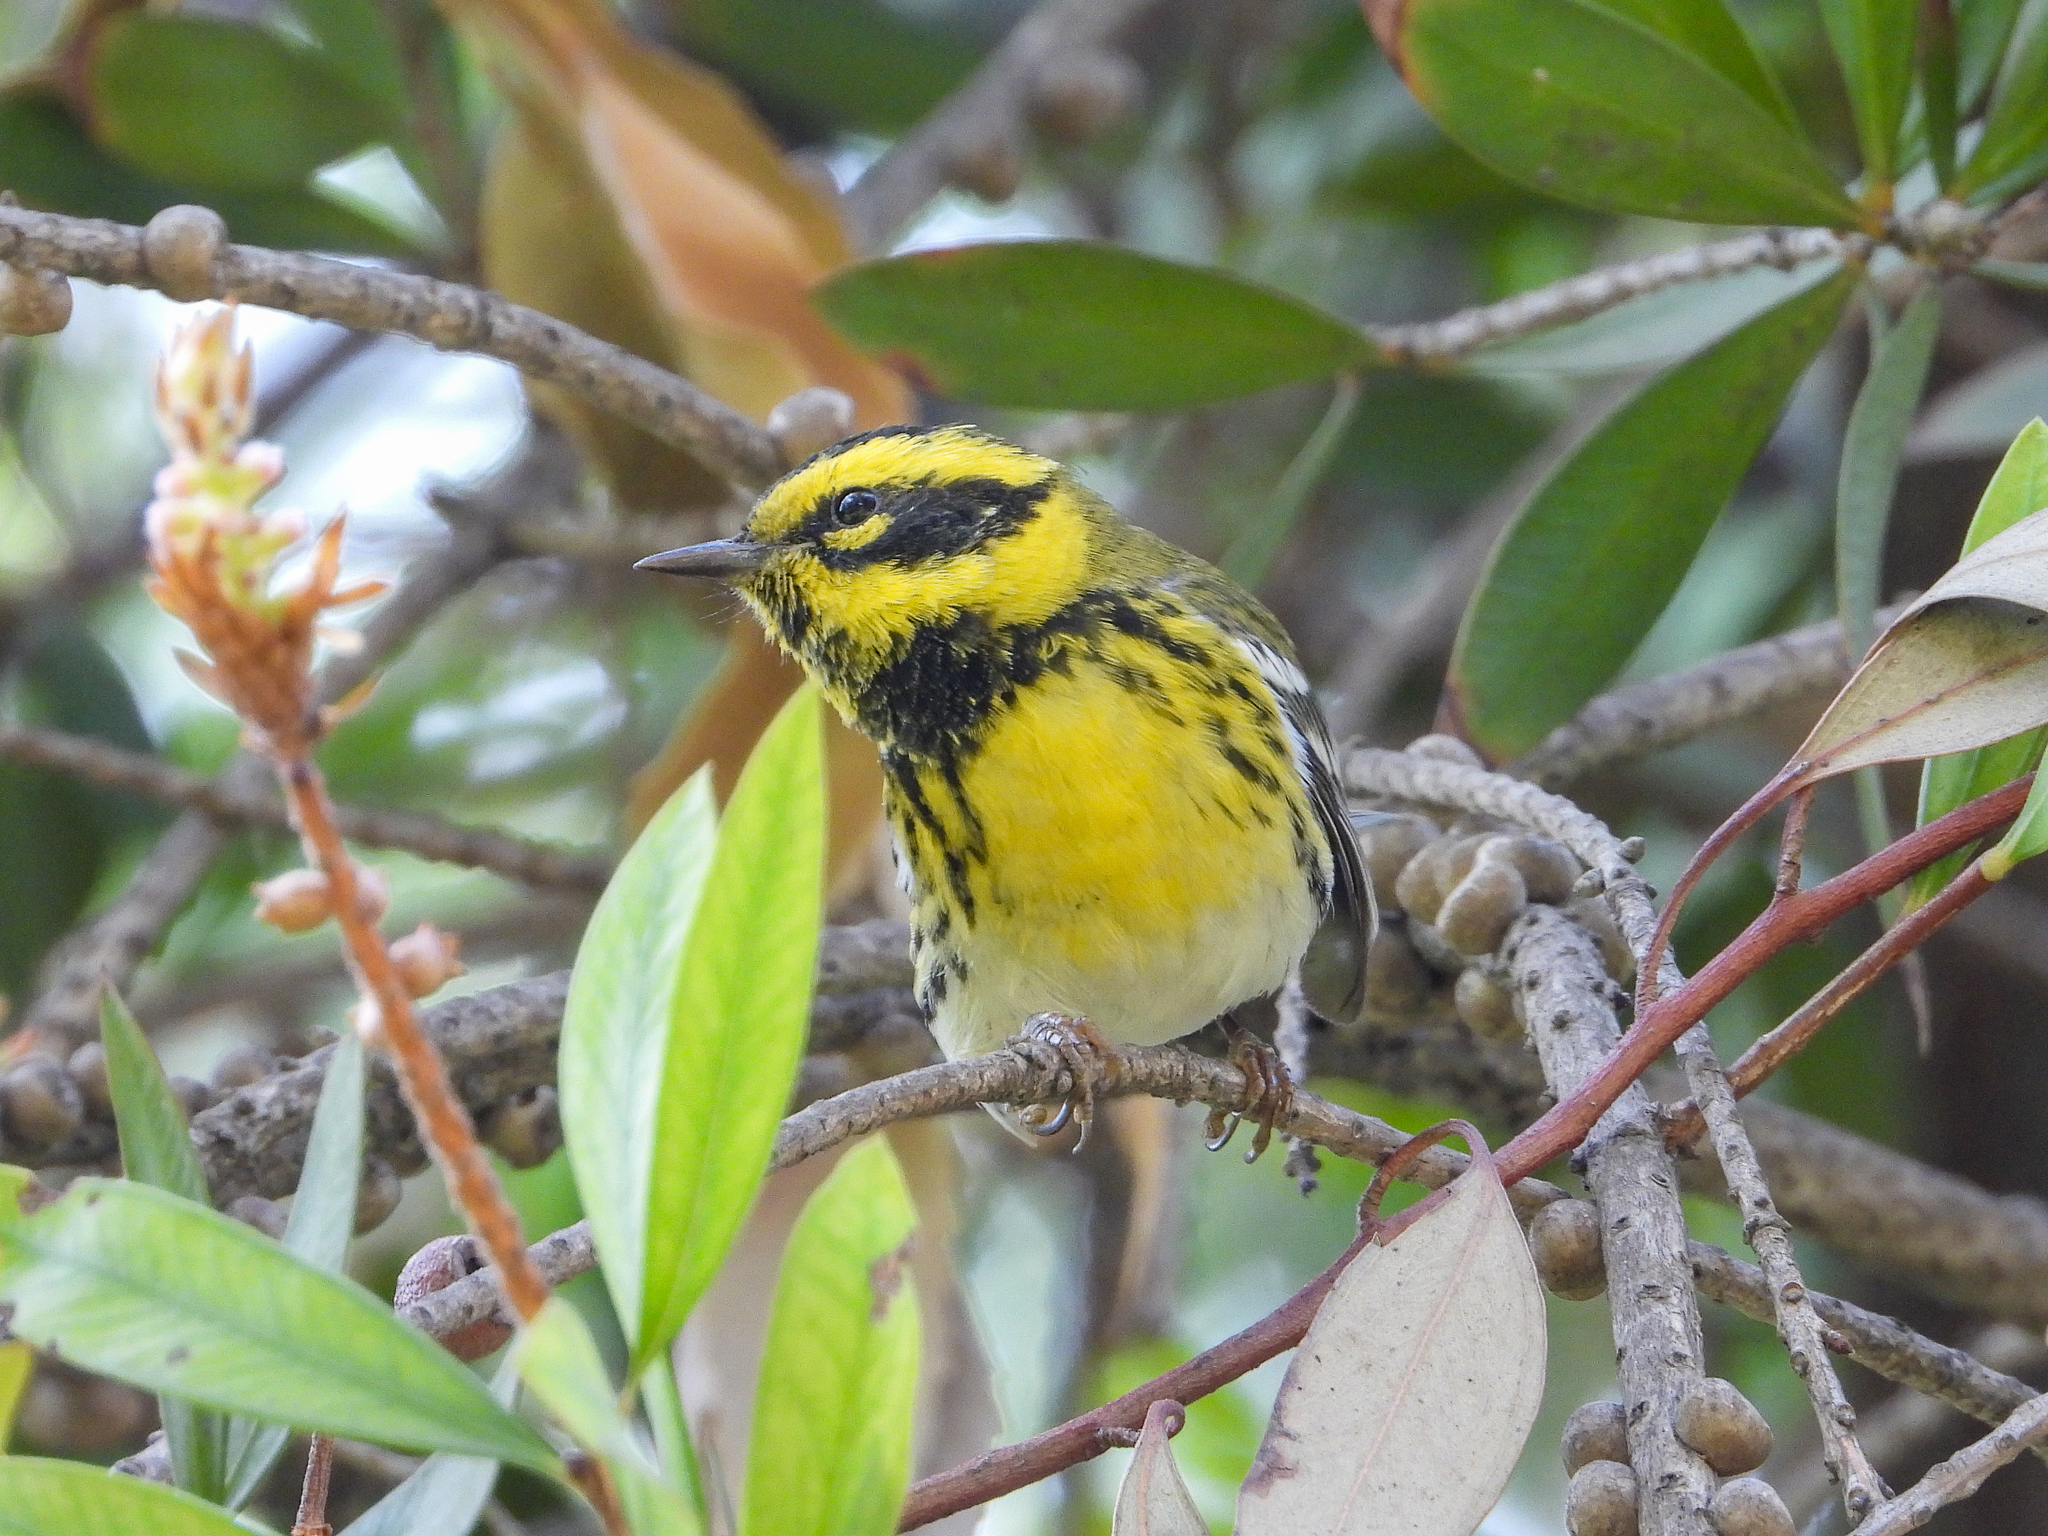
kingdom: Animalia
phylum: Chordata
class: Aves
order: Passeriformes
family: Parulidae
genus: Setophaga
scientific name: Setophaga townsendi
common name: Townsend's warbler
